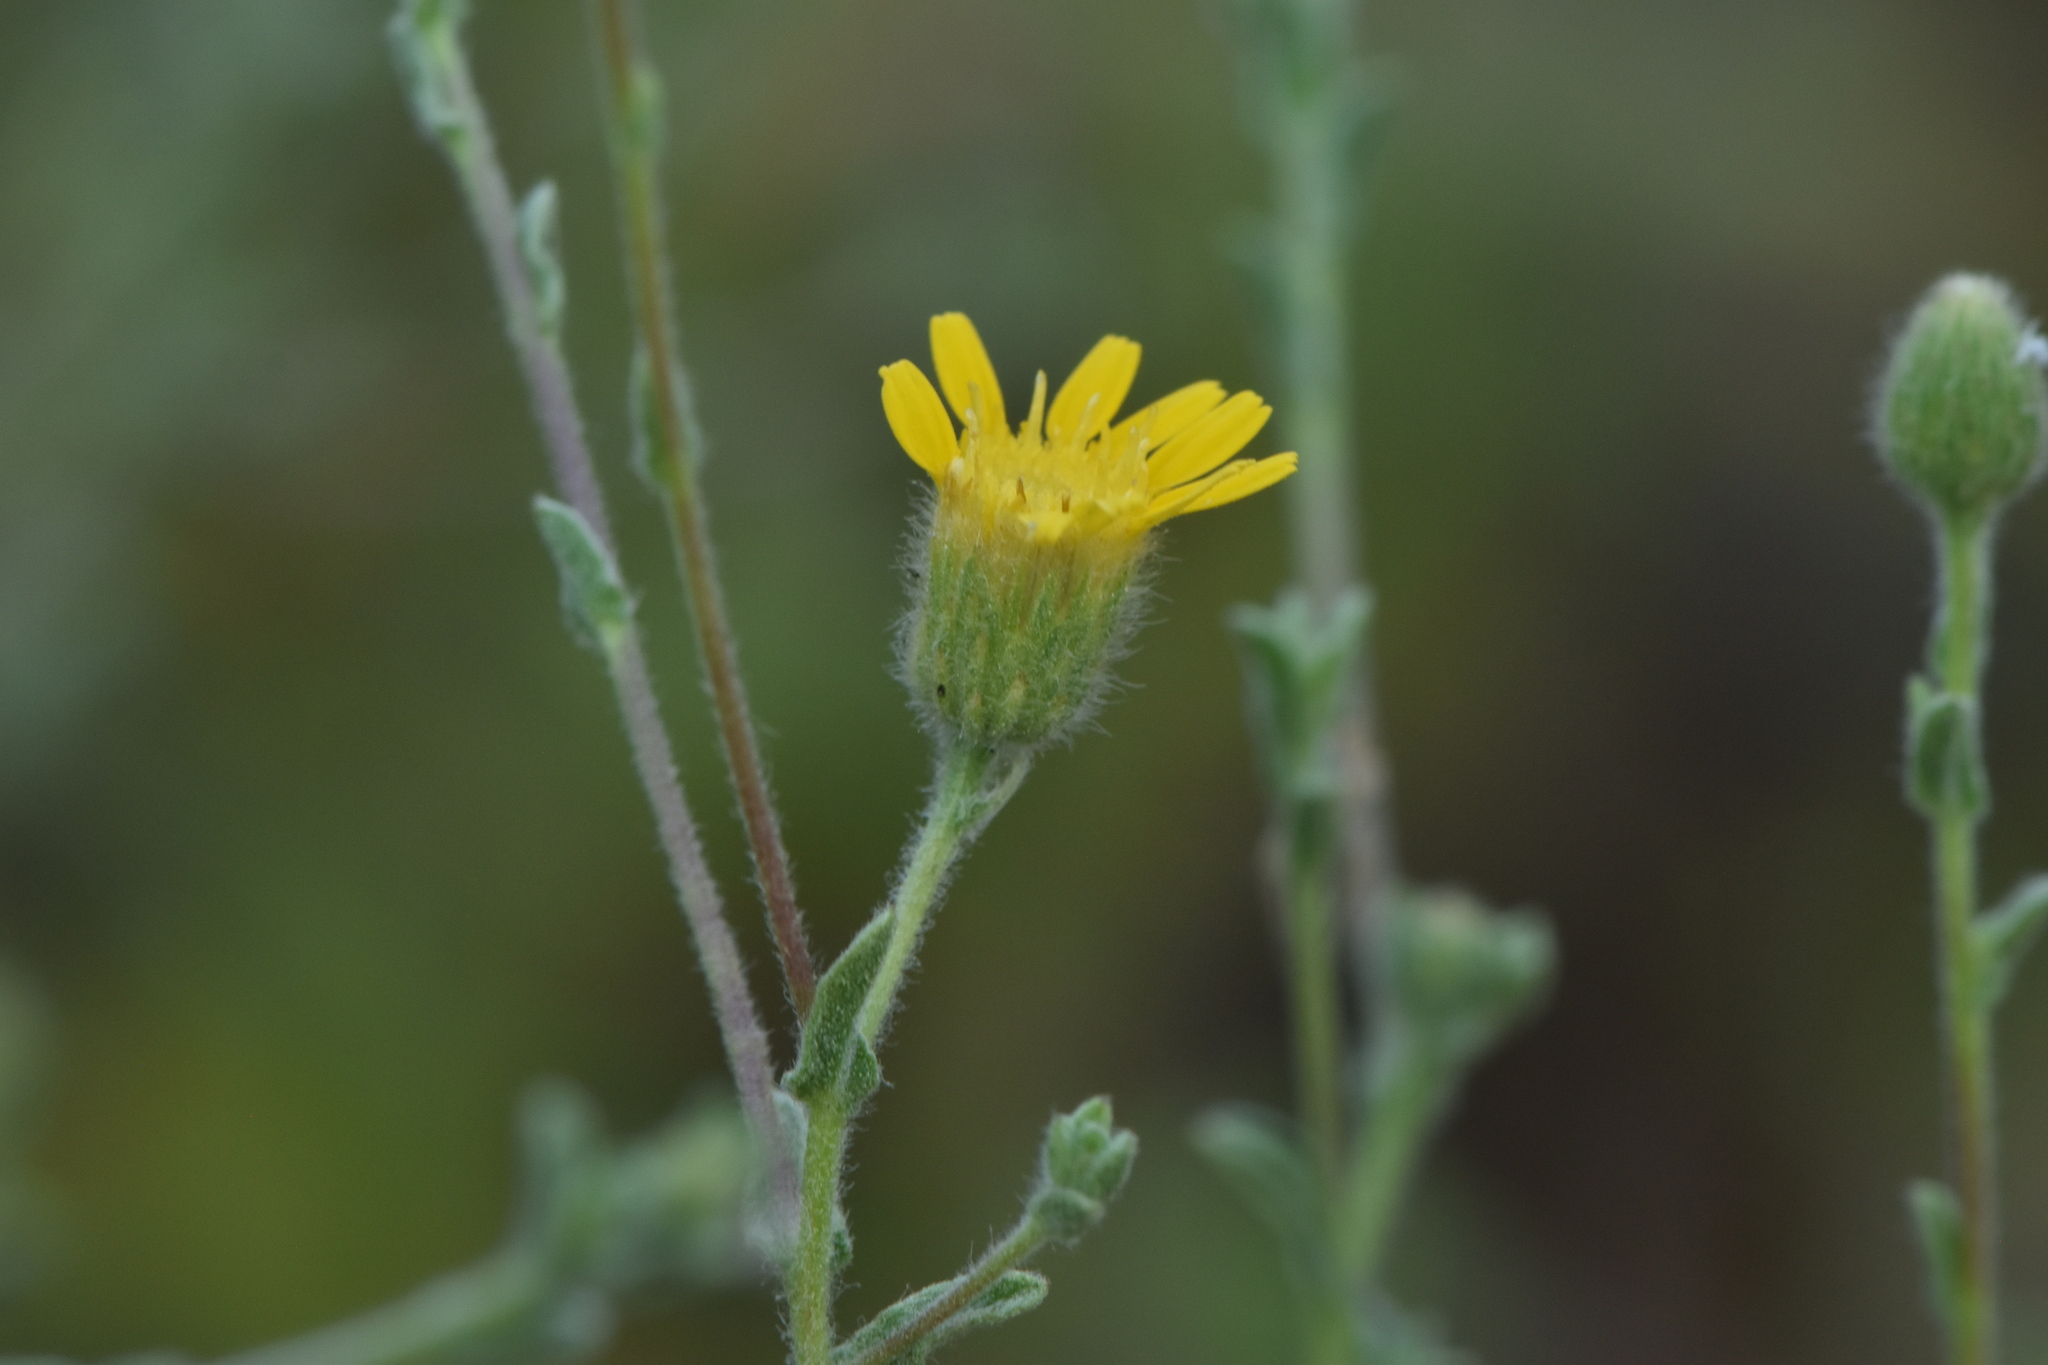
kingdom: Plantae
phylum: Tracheophyta
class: Magnoliopsida
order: Asterales
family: Asteraceae
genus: Pulicaria
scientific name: Pulicaria paludosa
